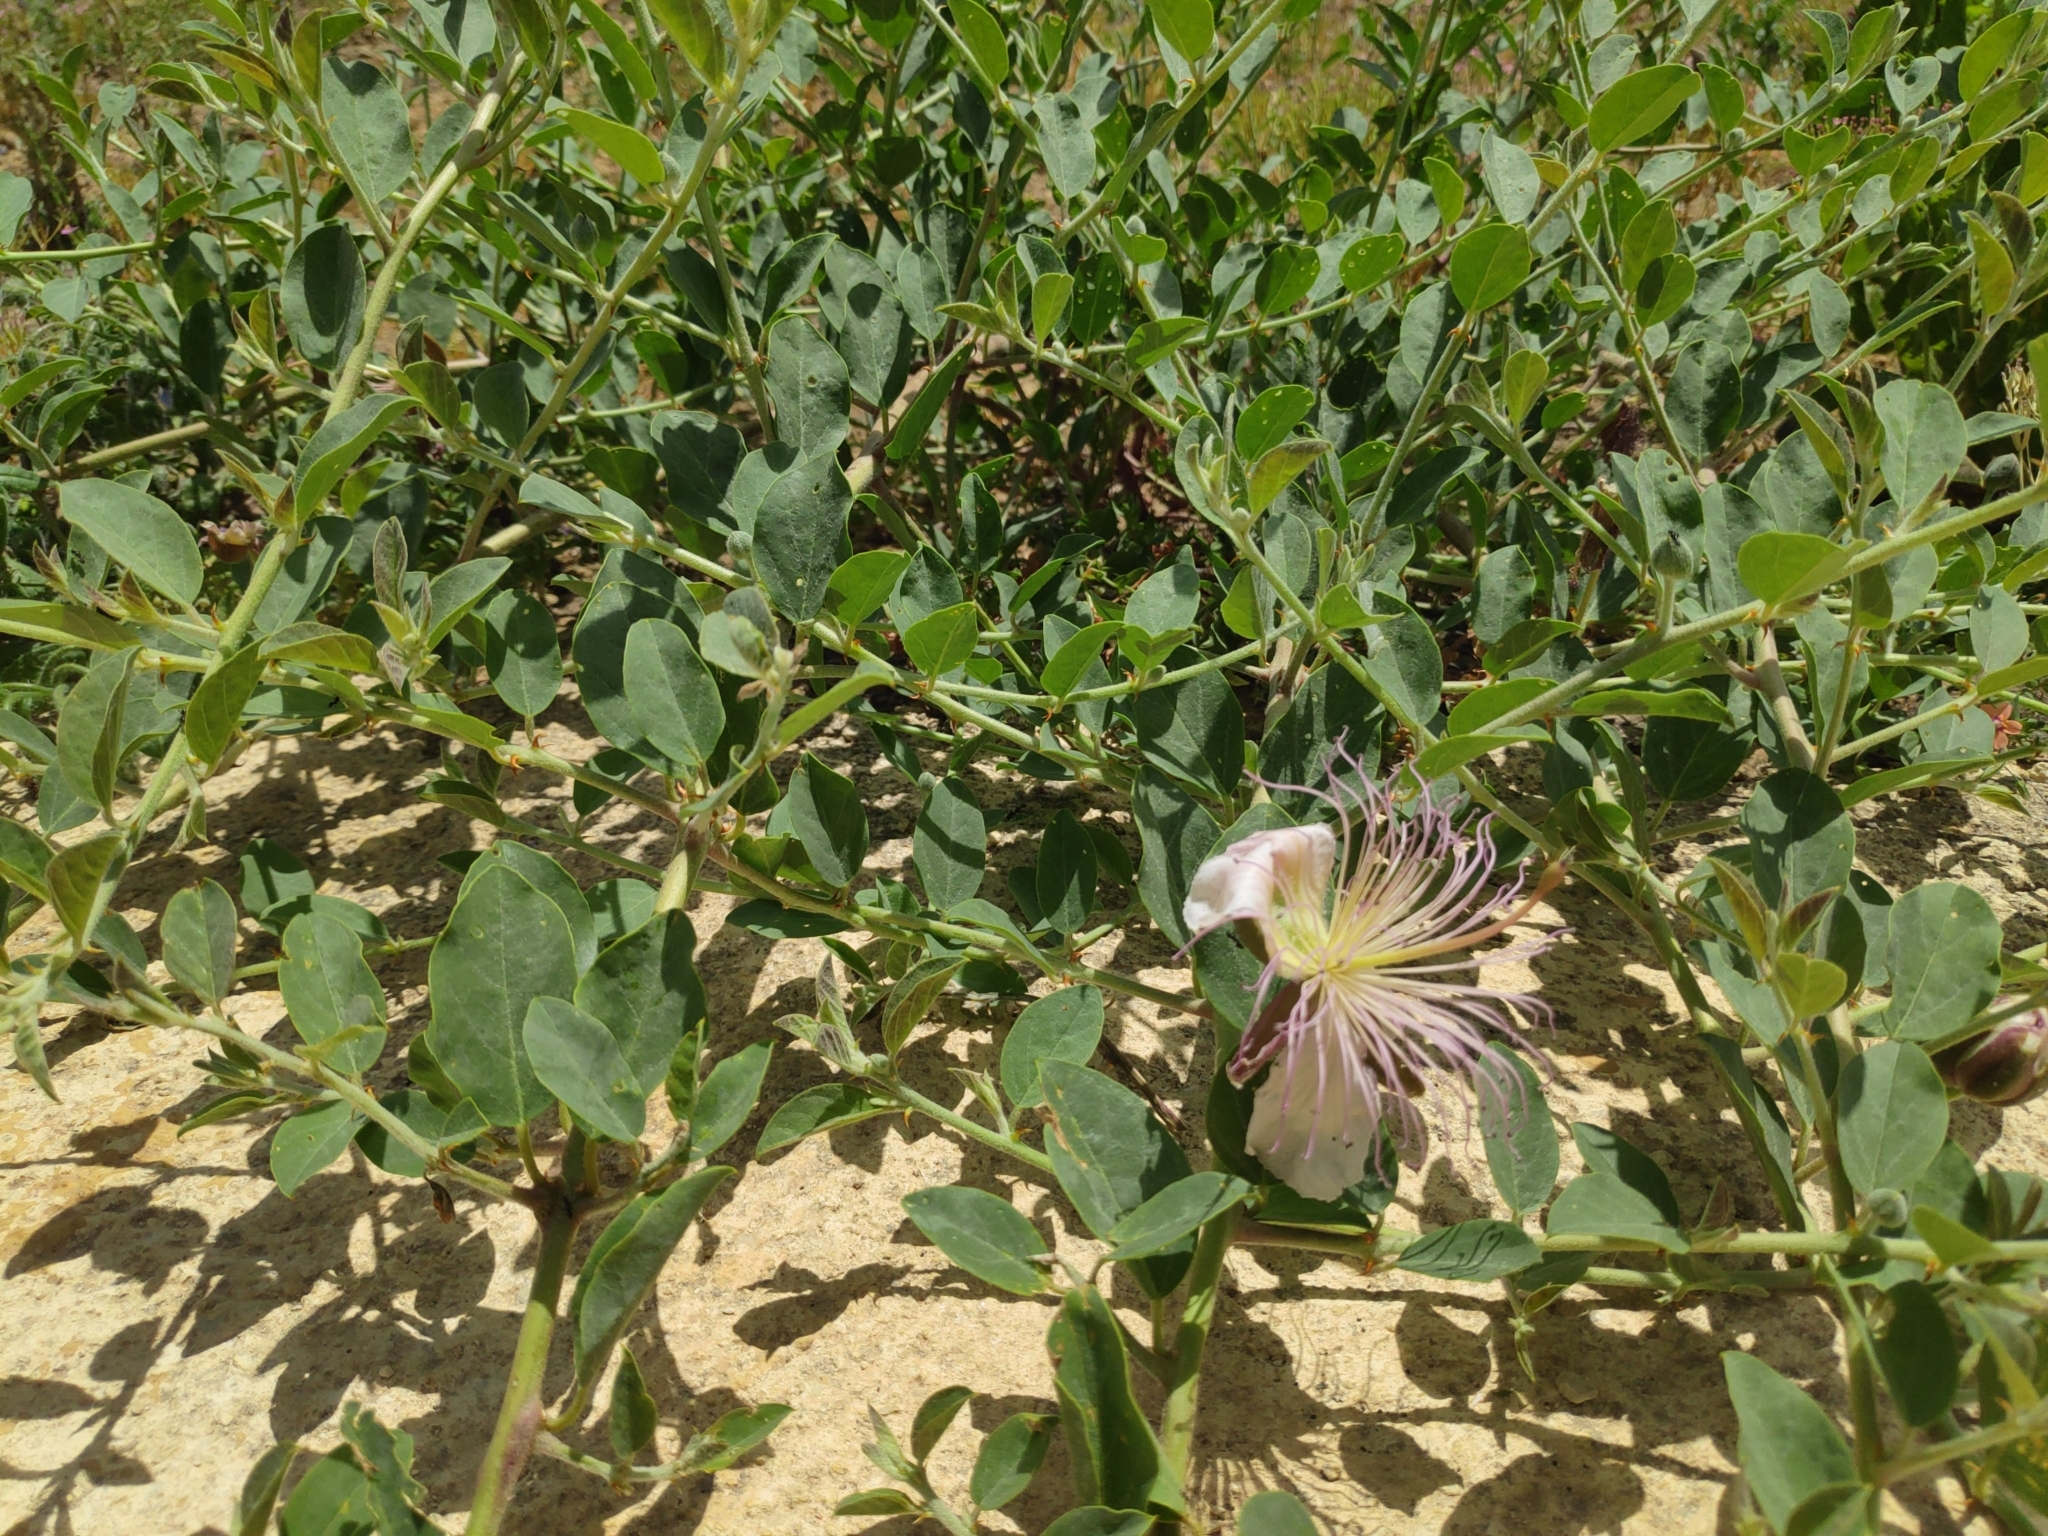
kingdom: Plantae
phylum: Tracheophyta
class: Magnoliopsida
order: Brassicales
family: Capparaceae
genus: Capparis
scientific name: Capparis spinosa
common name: Caper
